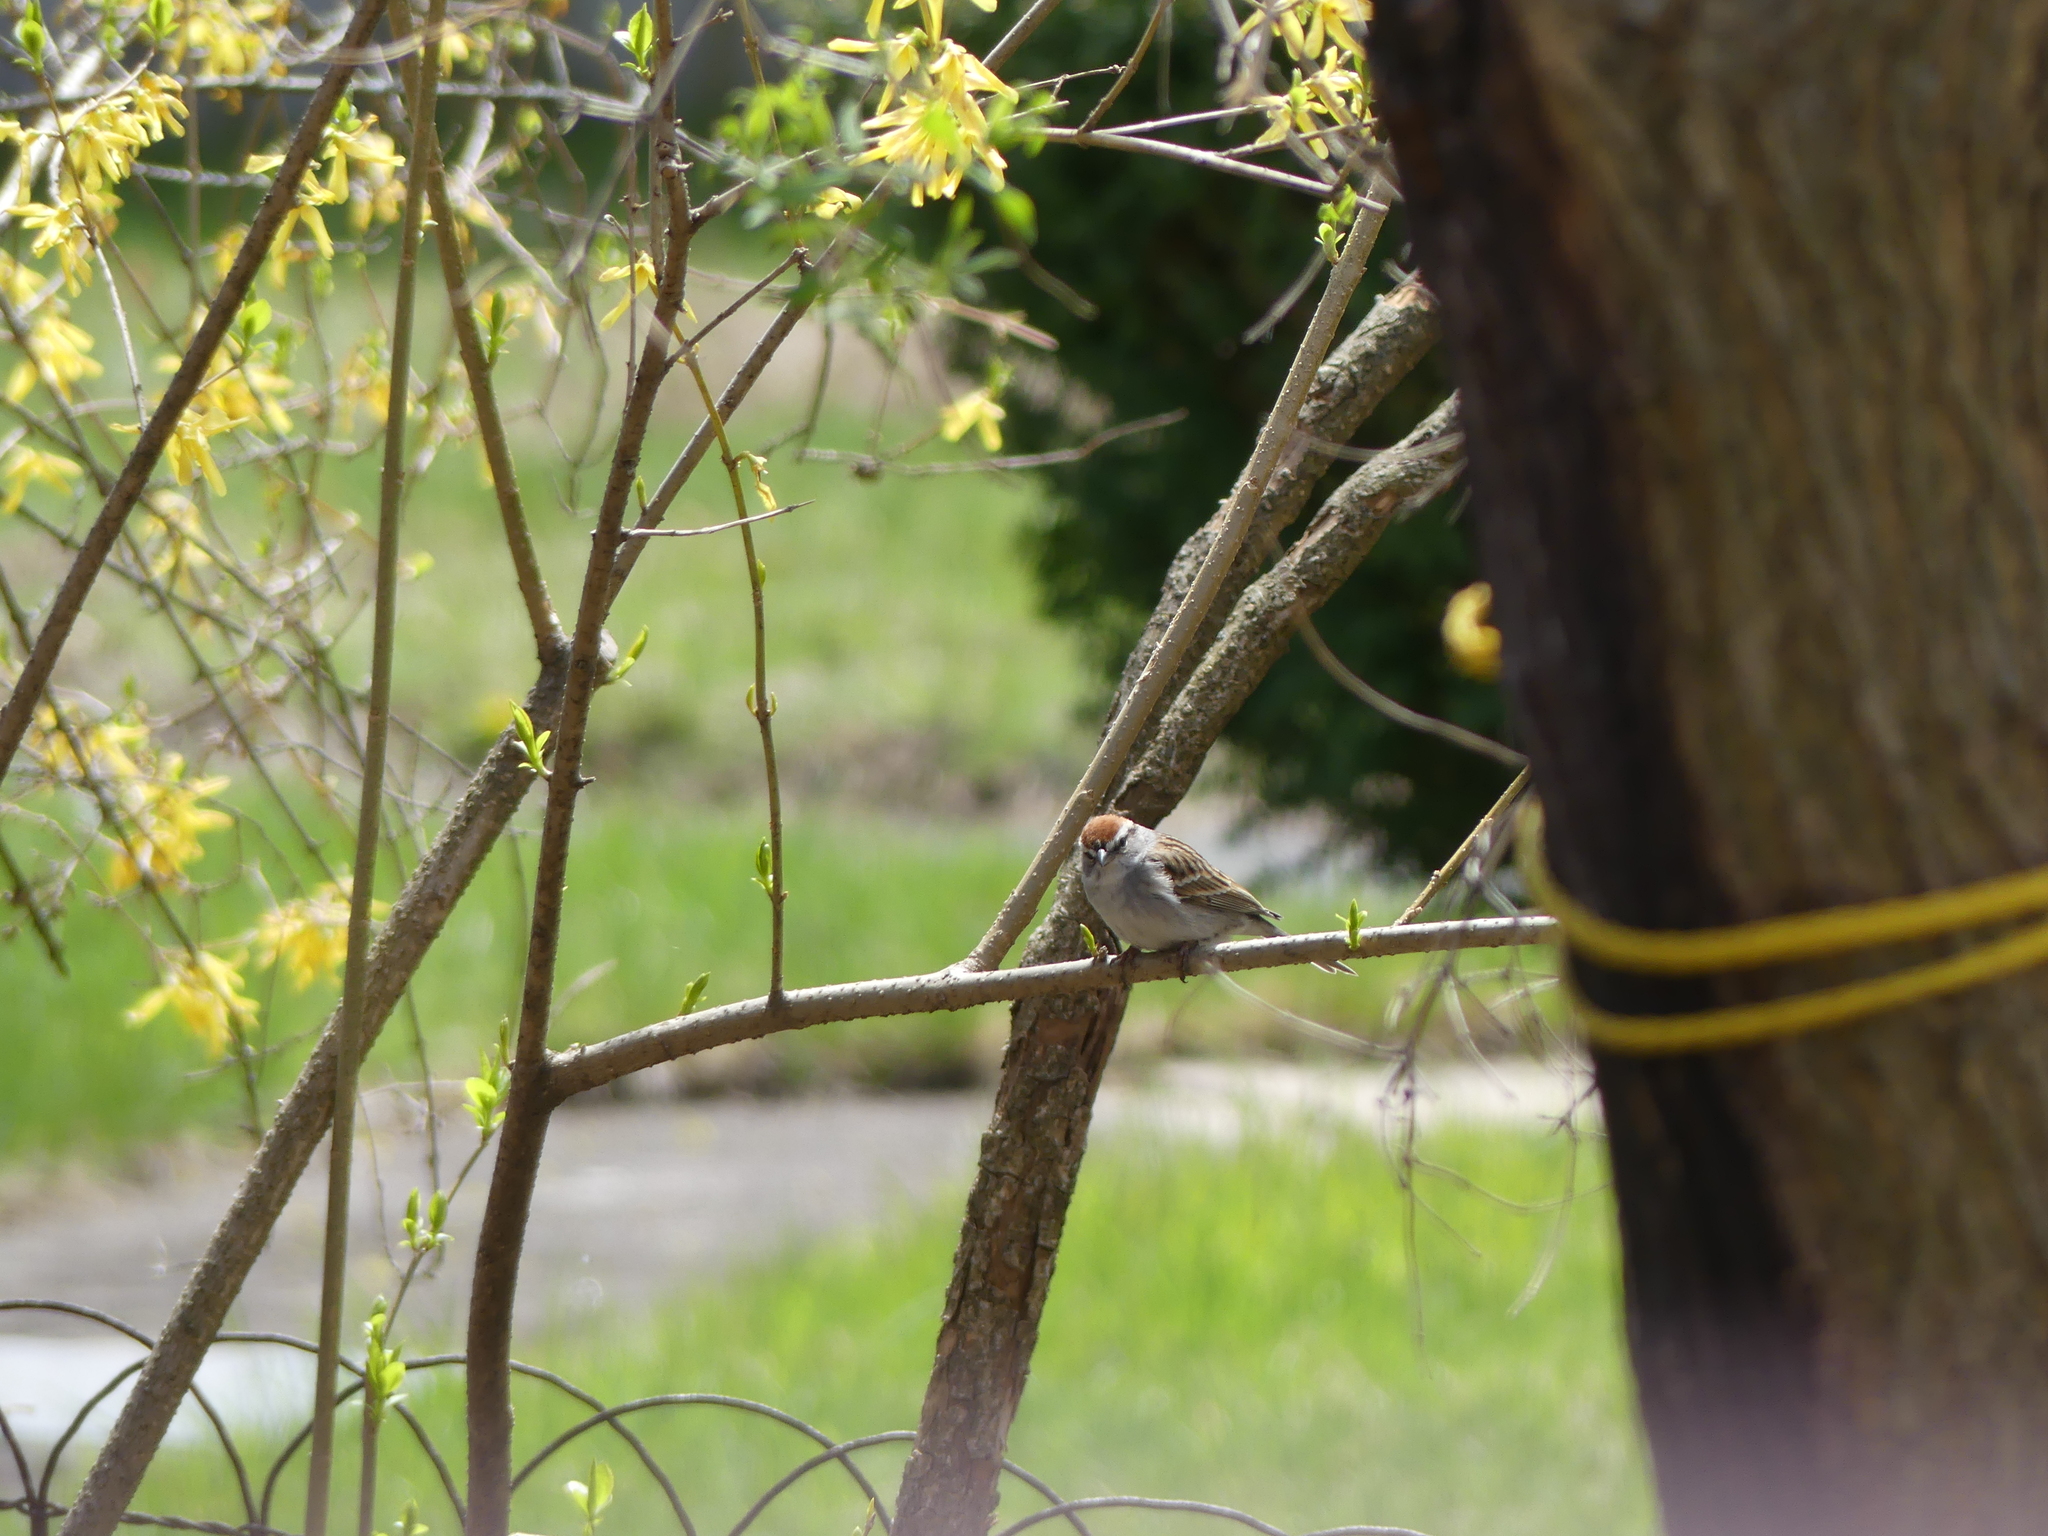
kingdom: Animalia
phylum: Chordata
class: Aves
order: Passeriformes
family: Passerellidae
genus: Spizella
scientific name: Spizella passerina
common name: Chipping sparrow
